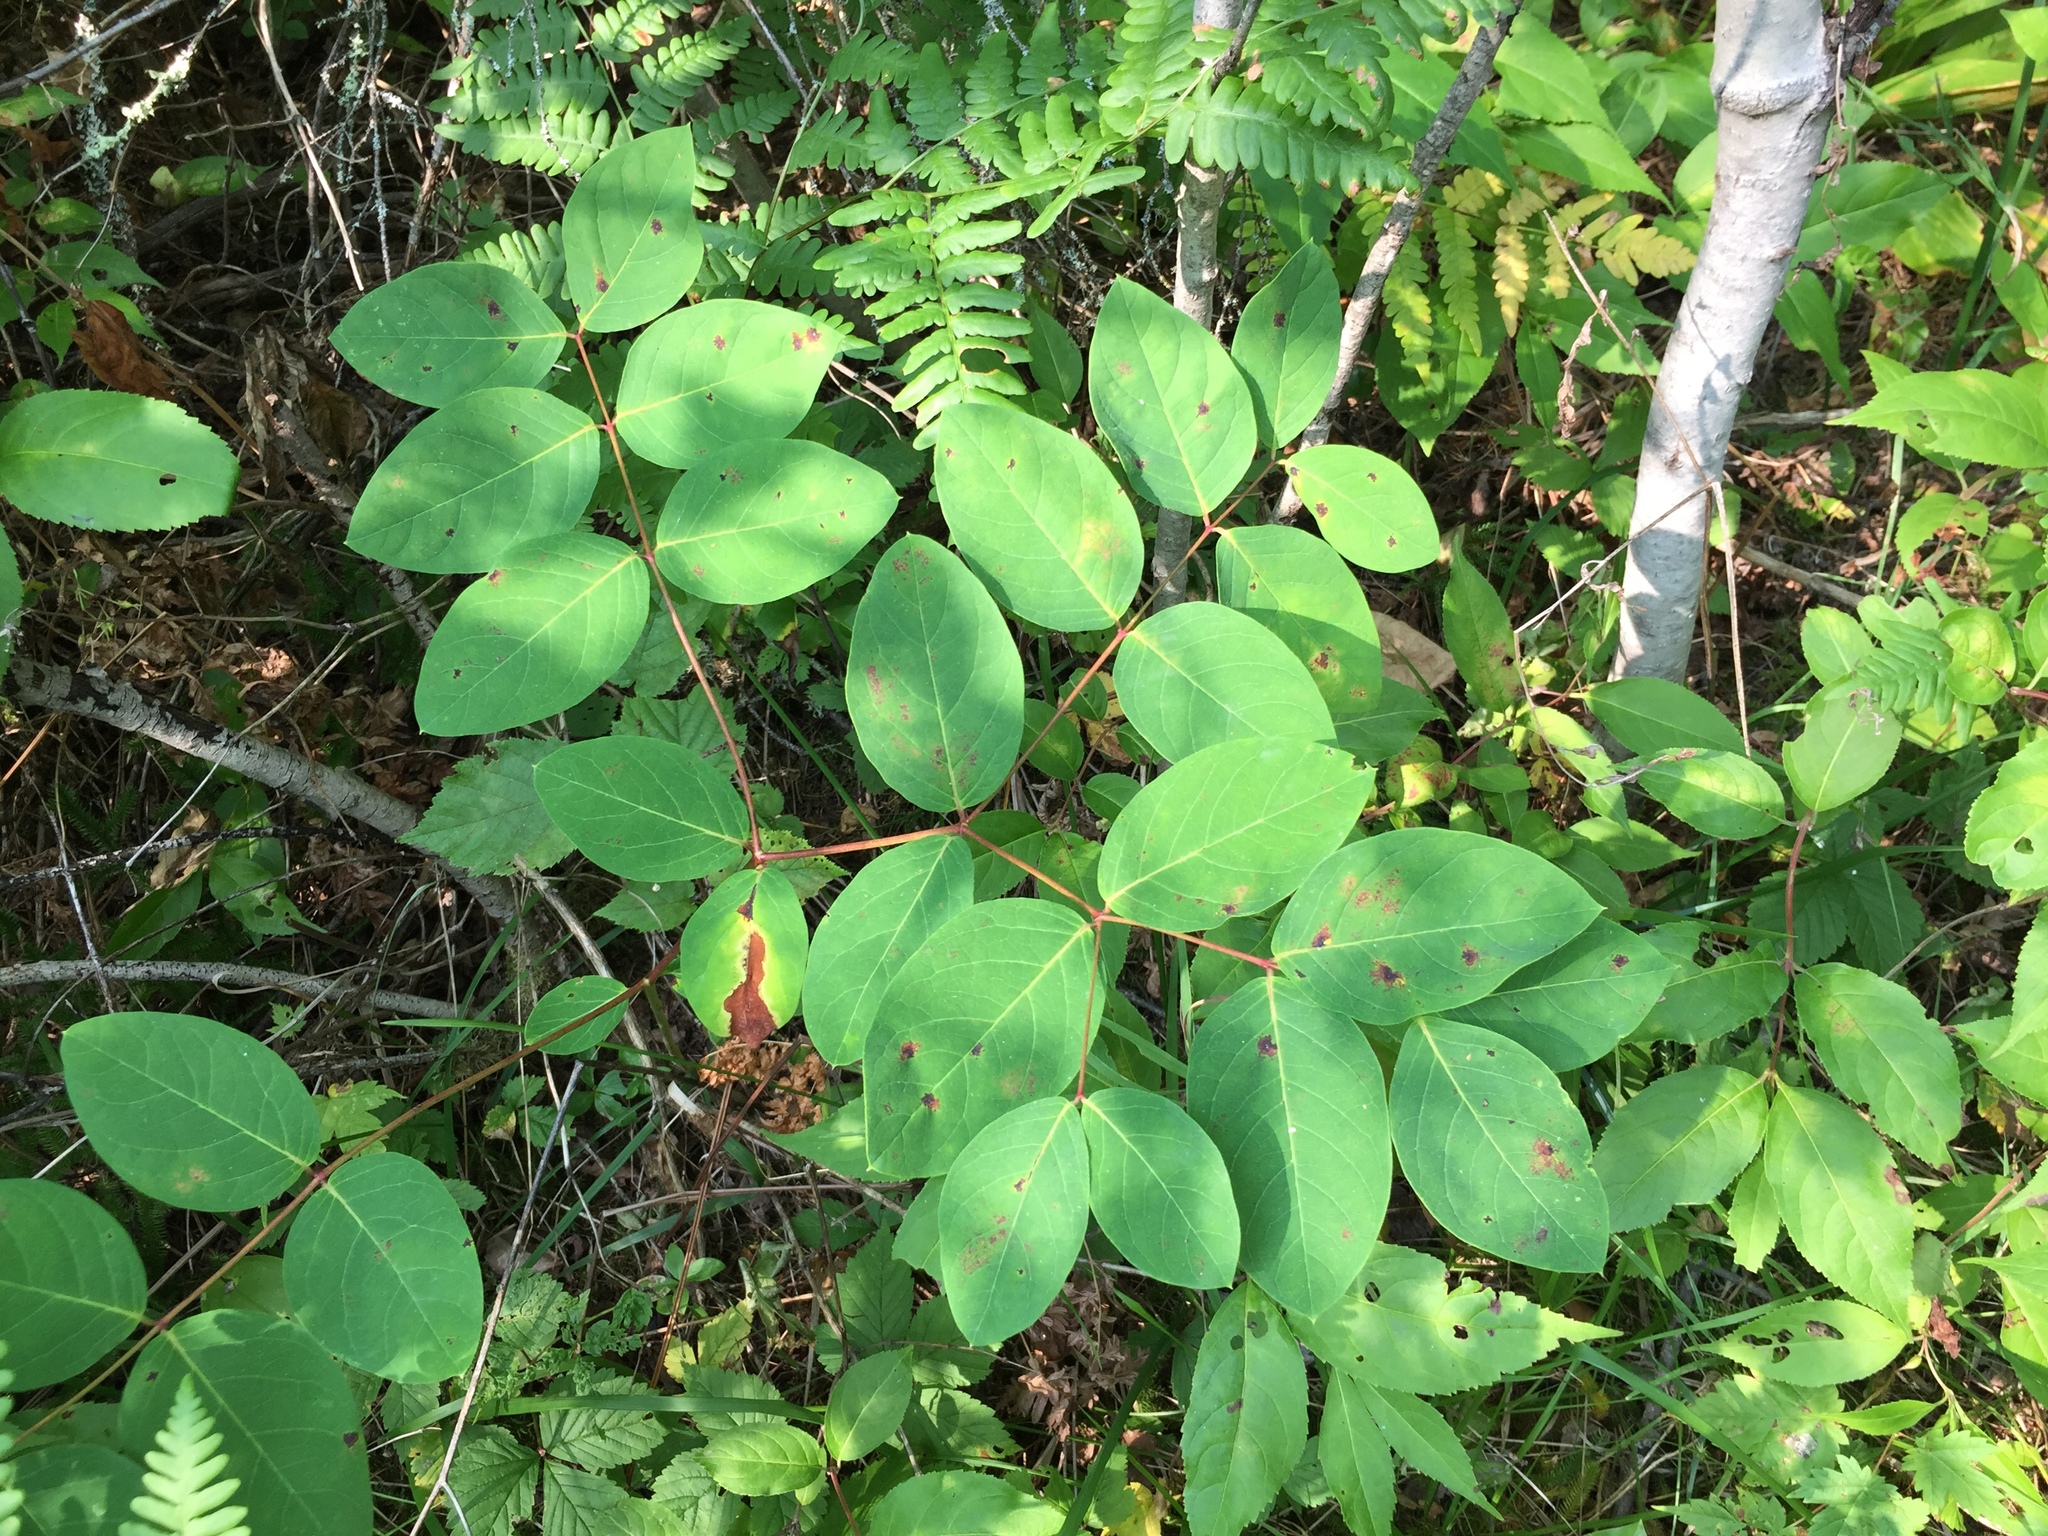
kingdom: Plantae
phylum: Tracheophyta
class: Magnoliopsida
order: Gentianales
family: Apocynaceae
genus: Apocynum
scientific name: Apocynum androsaemifolium
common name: Spreading dogbane
